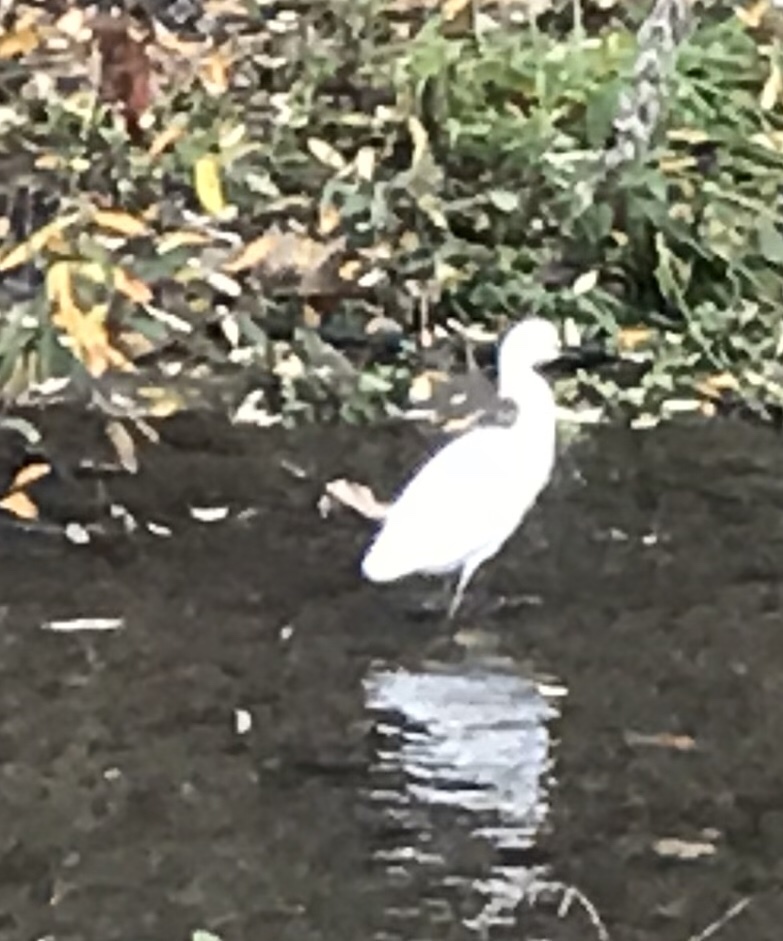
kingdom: Animalia
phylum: Chordata
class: Aves
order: Pelecaniformes
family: Ardeidae
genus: Egretta
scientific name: Egretta thula
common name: Snowy egret
